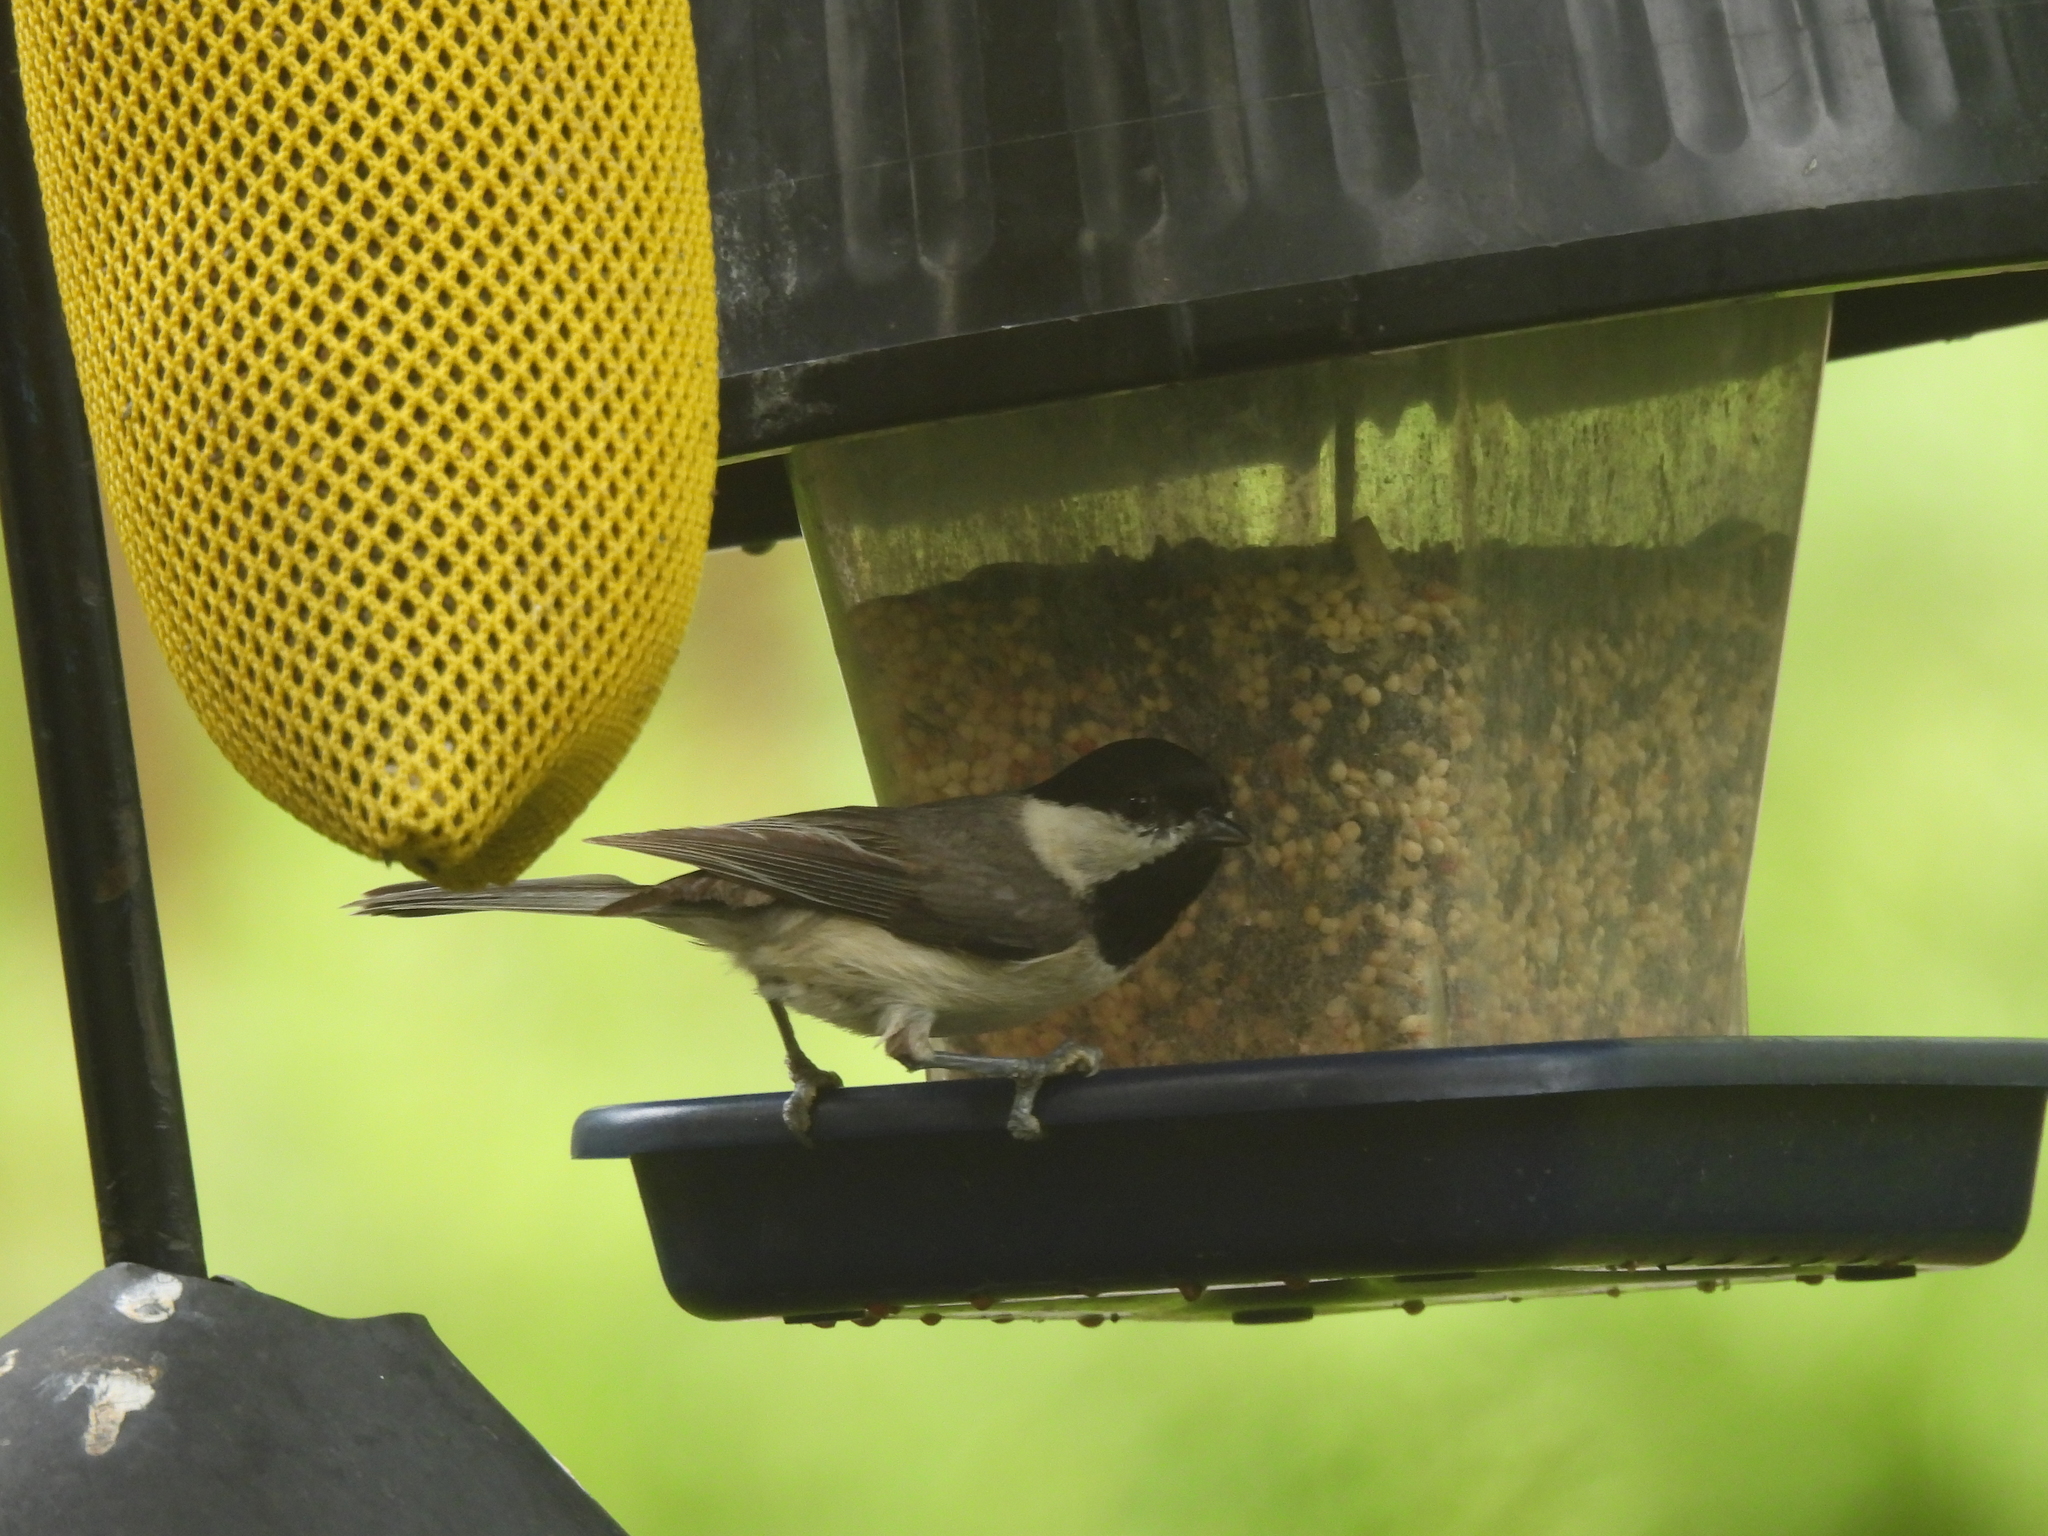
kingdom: Animalia
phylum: Chordata
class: Aves
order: Passeriformes
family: Paridae
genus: Poecile
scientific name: Poecile carolinensis
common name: Carolina chickadee
